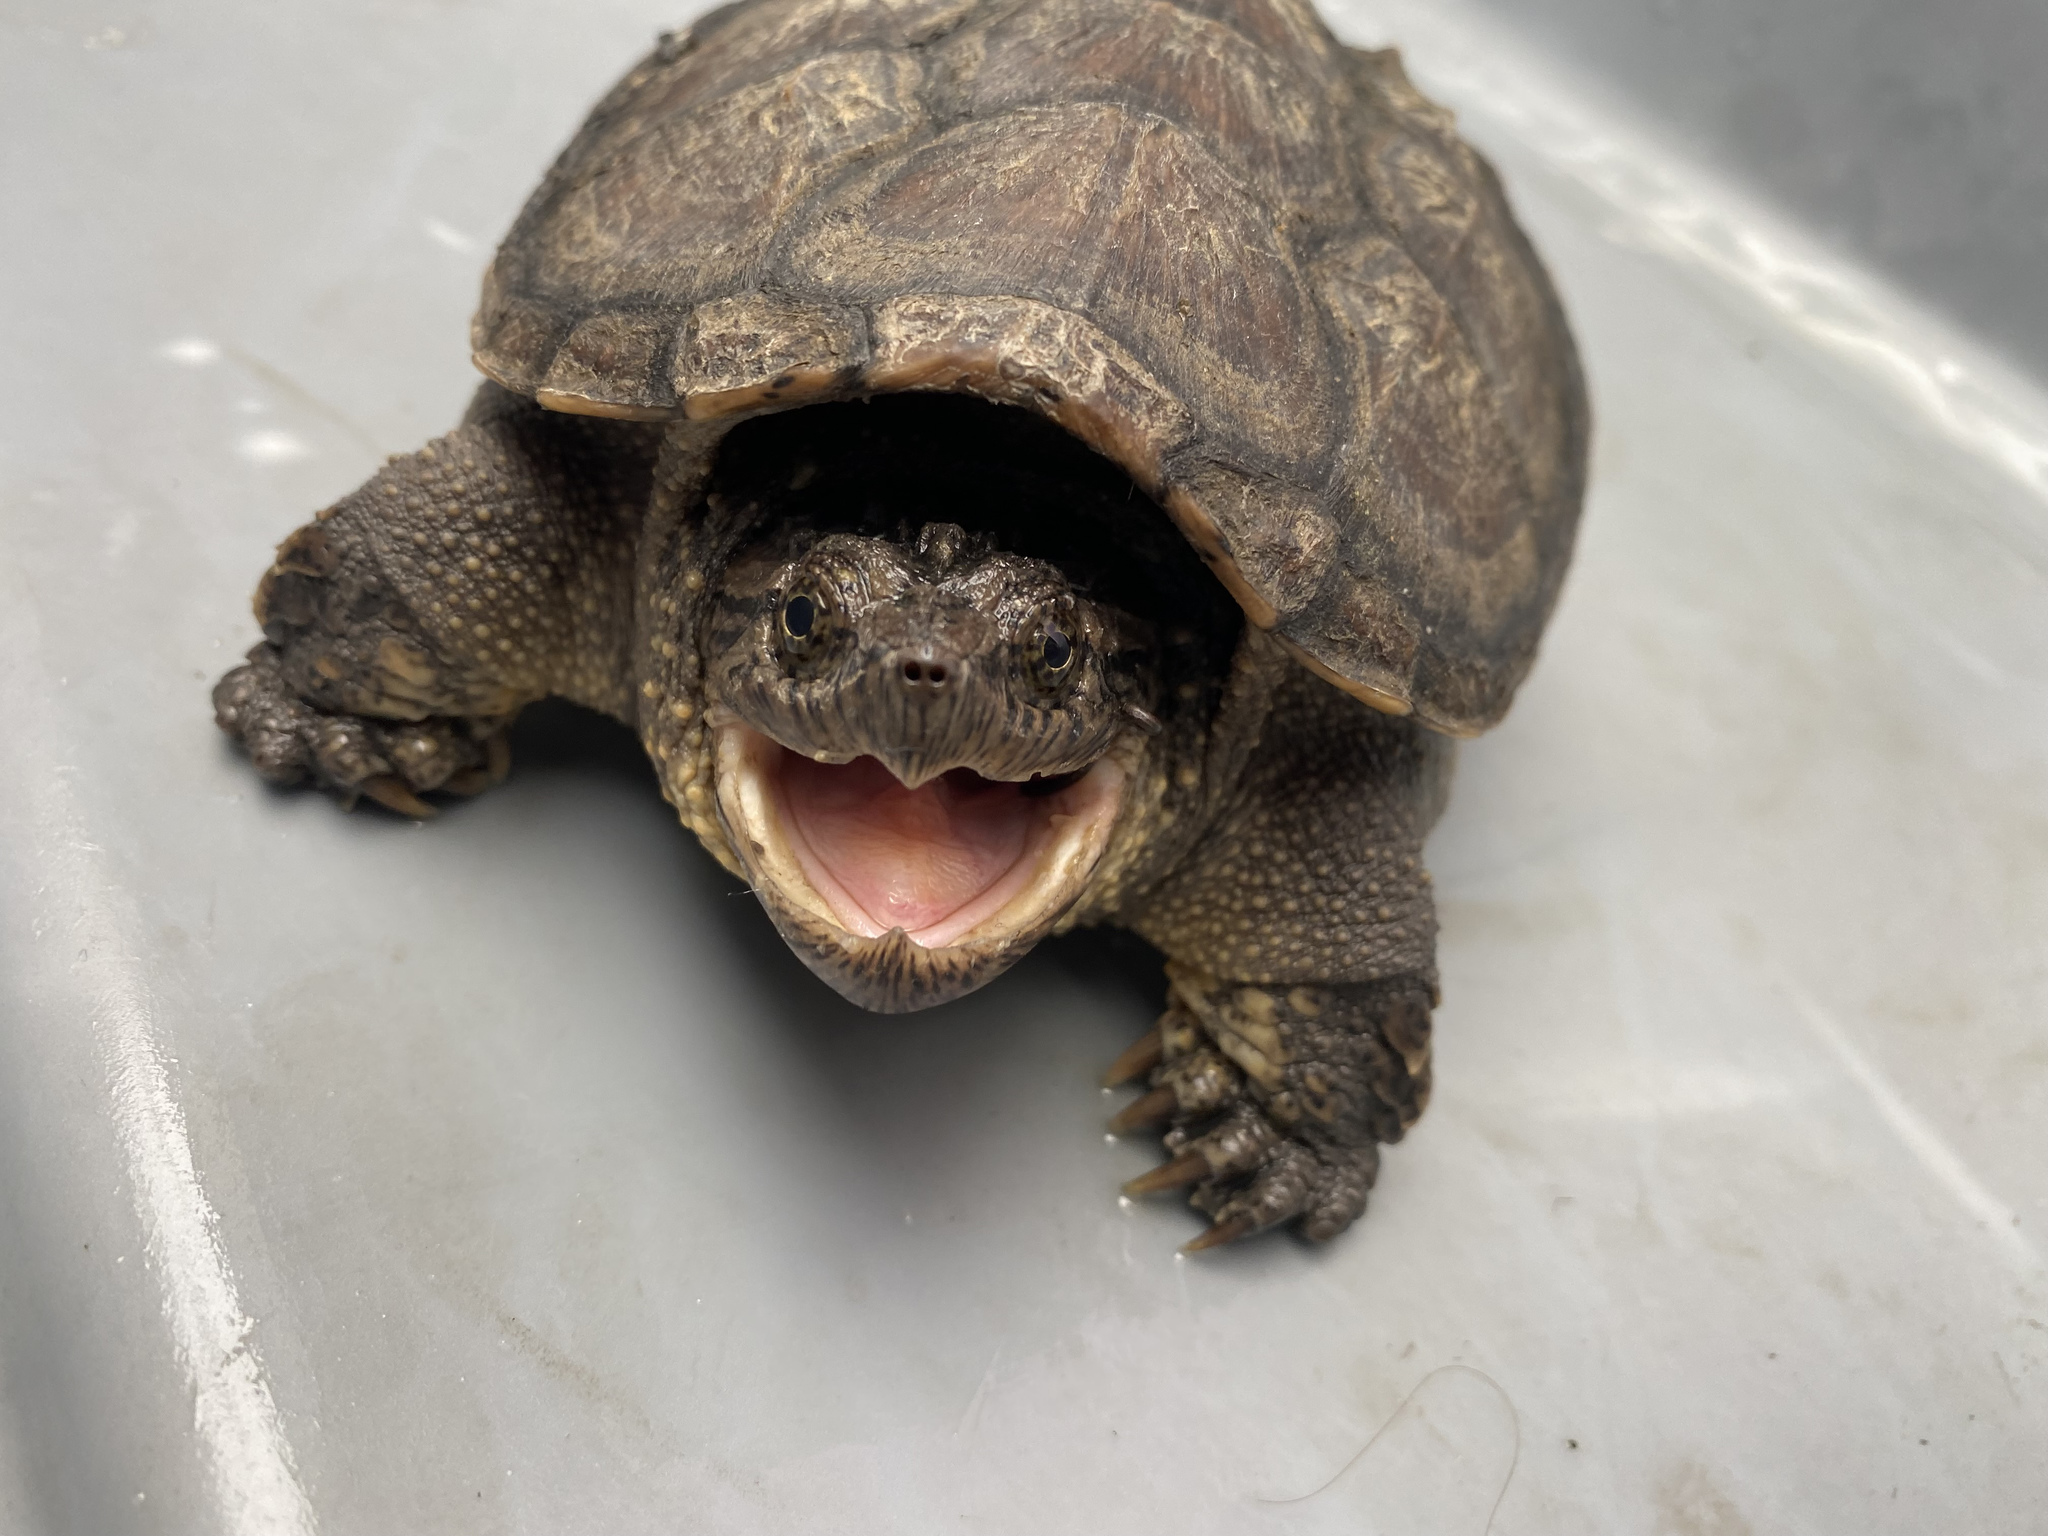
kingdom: Animalia
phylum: Chordata
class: Testudines
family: Chelydridae
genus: Chelydra
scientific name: Chelydra serpentina
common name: Common snapping turtle
